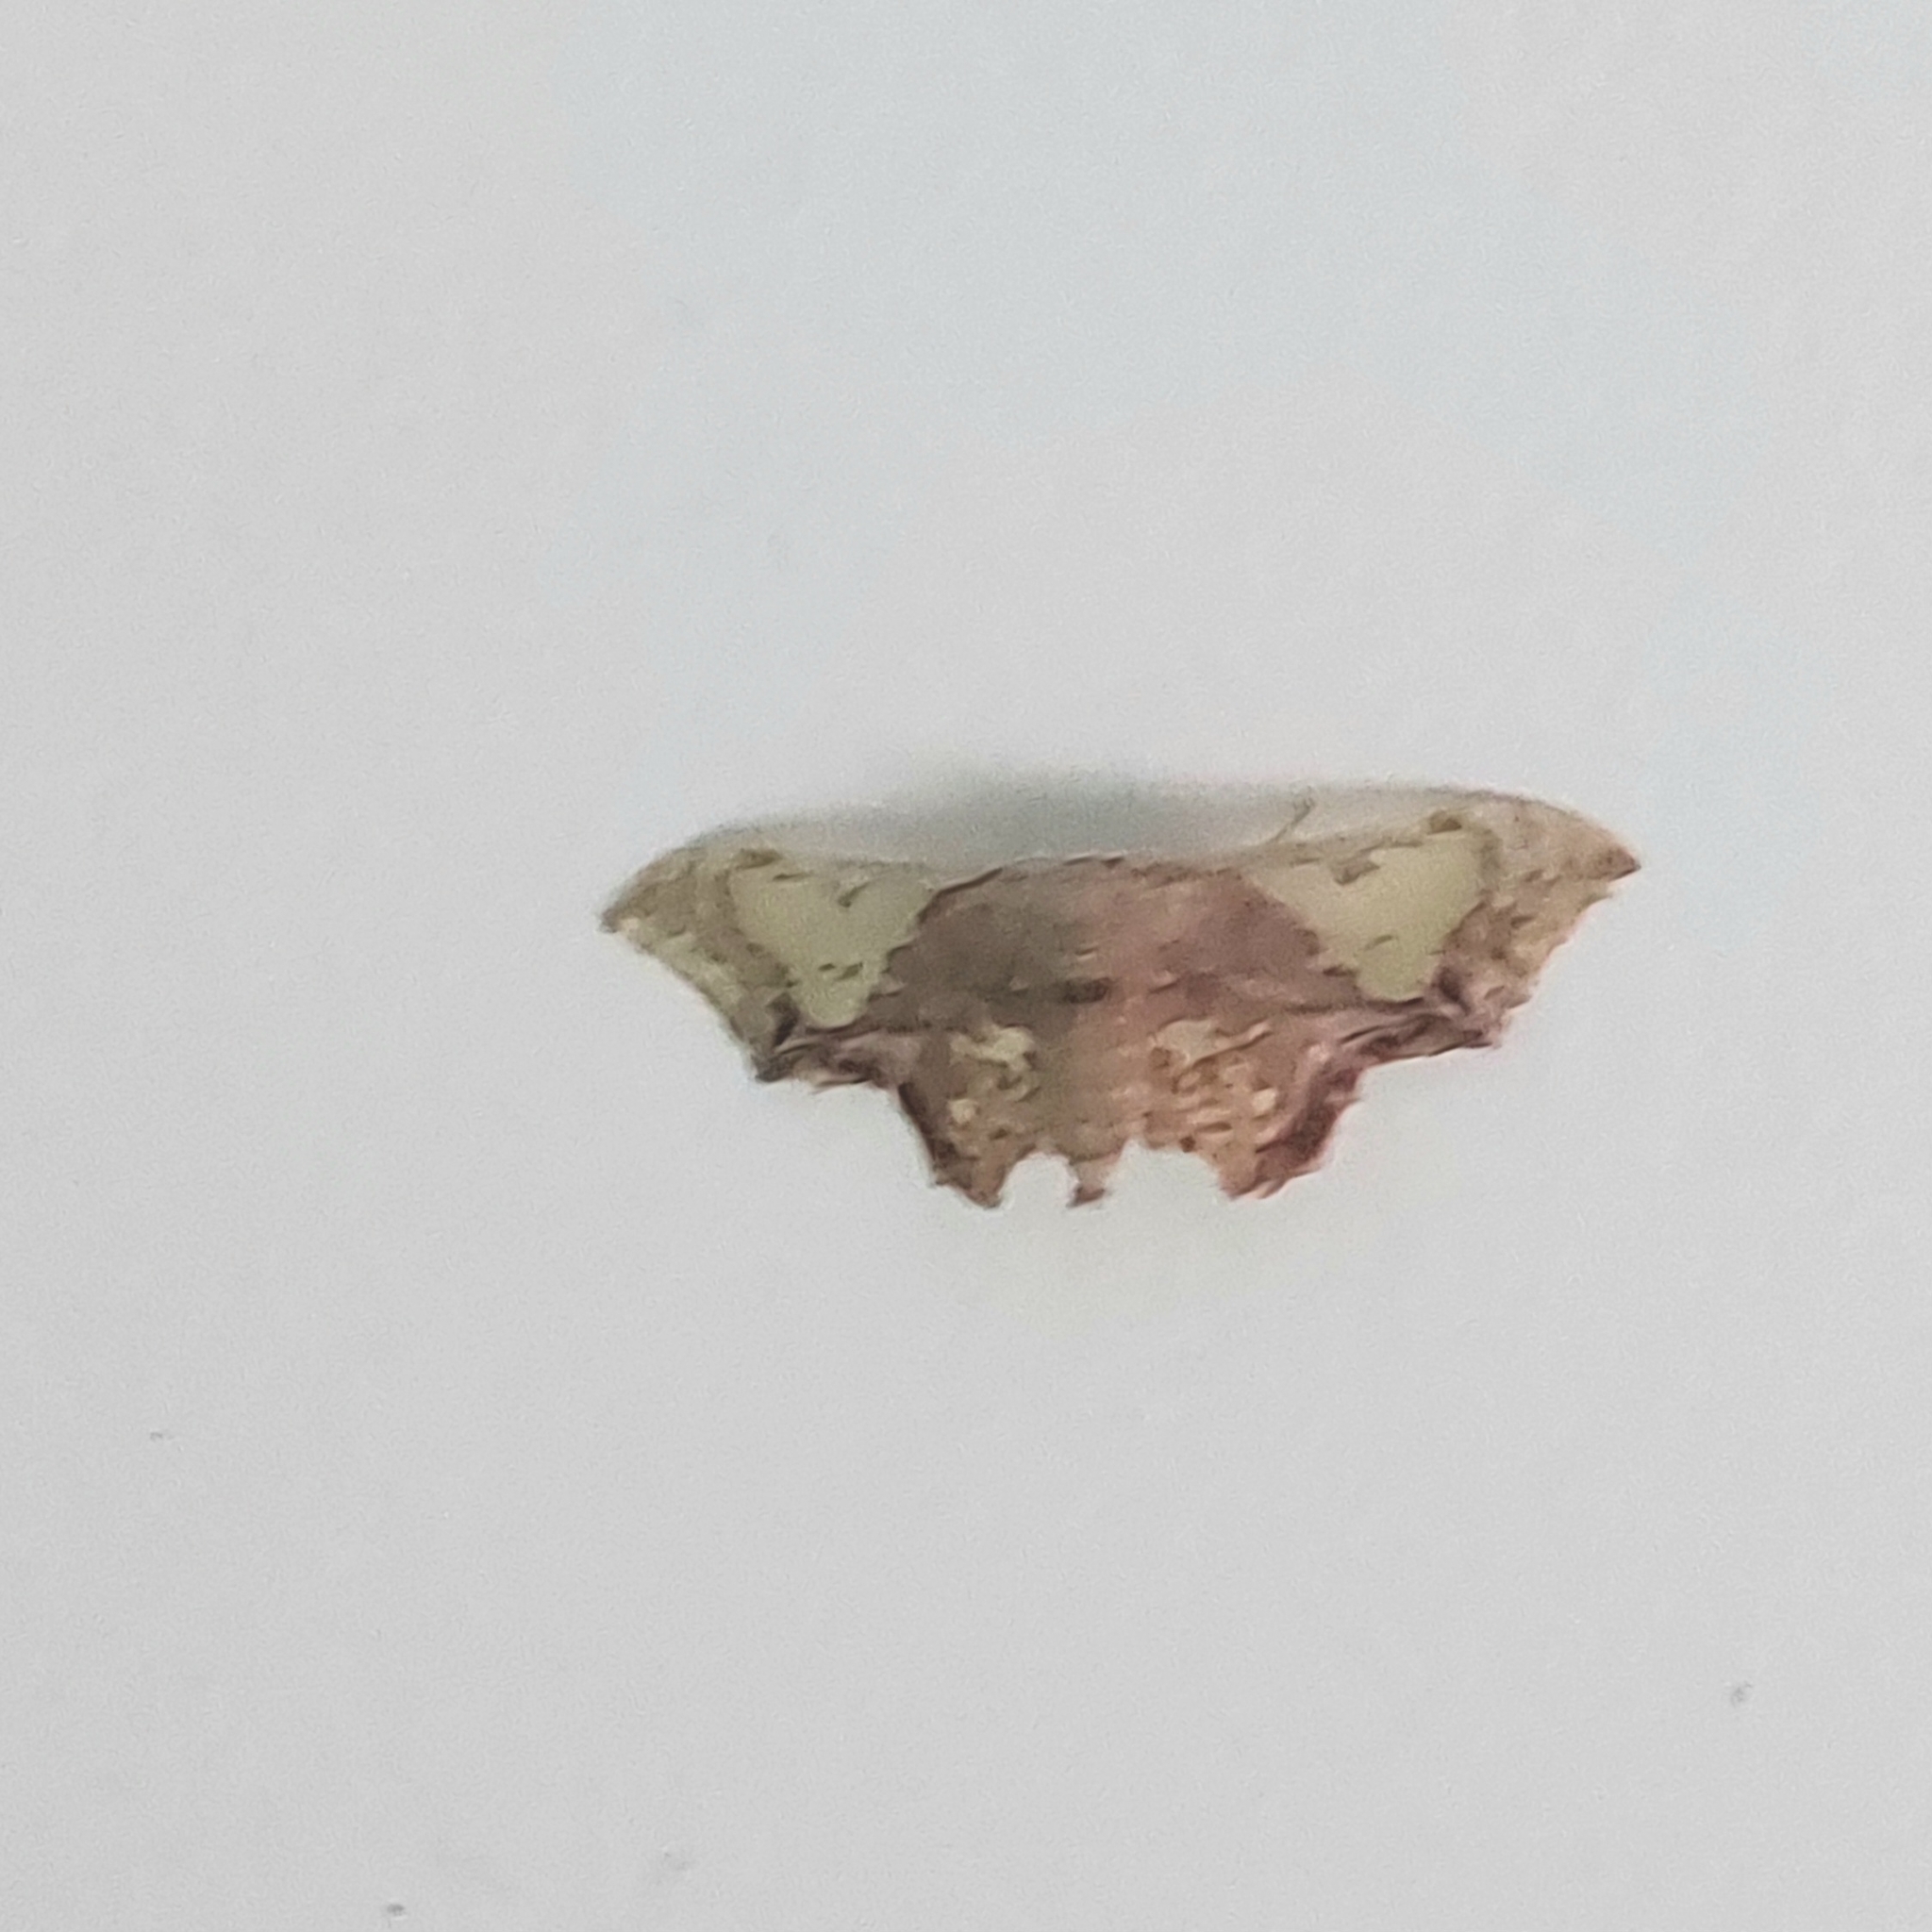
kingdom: Animalia
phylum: Arthropoda
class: Insecta
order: Lepidoptera
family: Geometridae
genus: Pseudasellodes
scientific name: Pseudasellodes fenestraria
